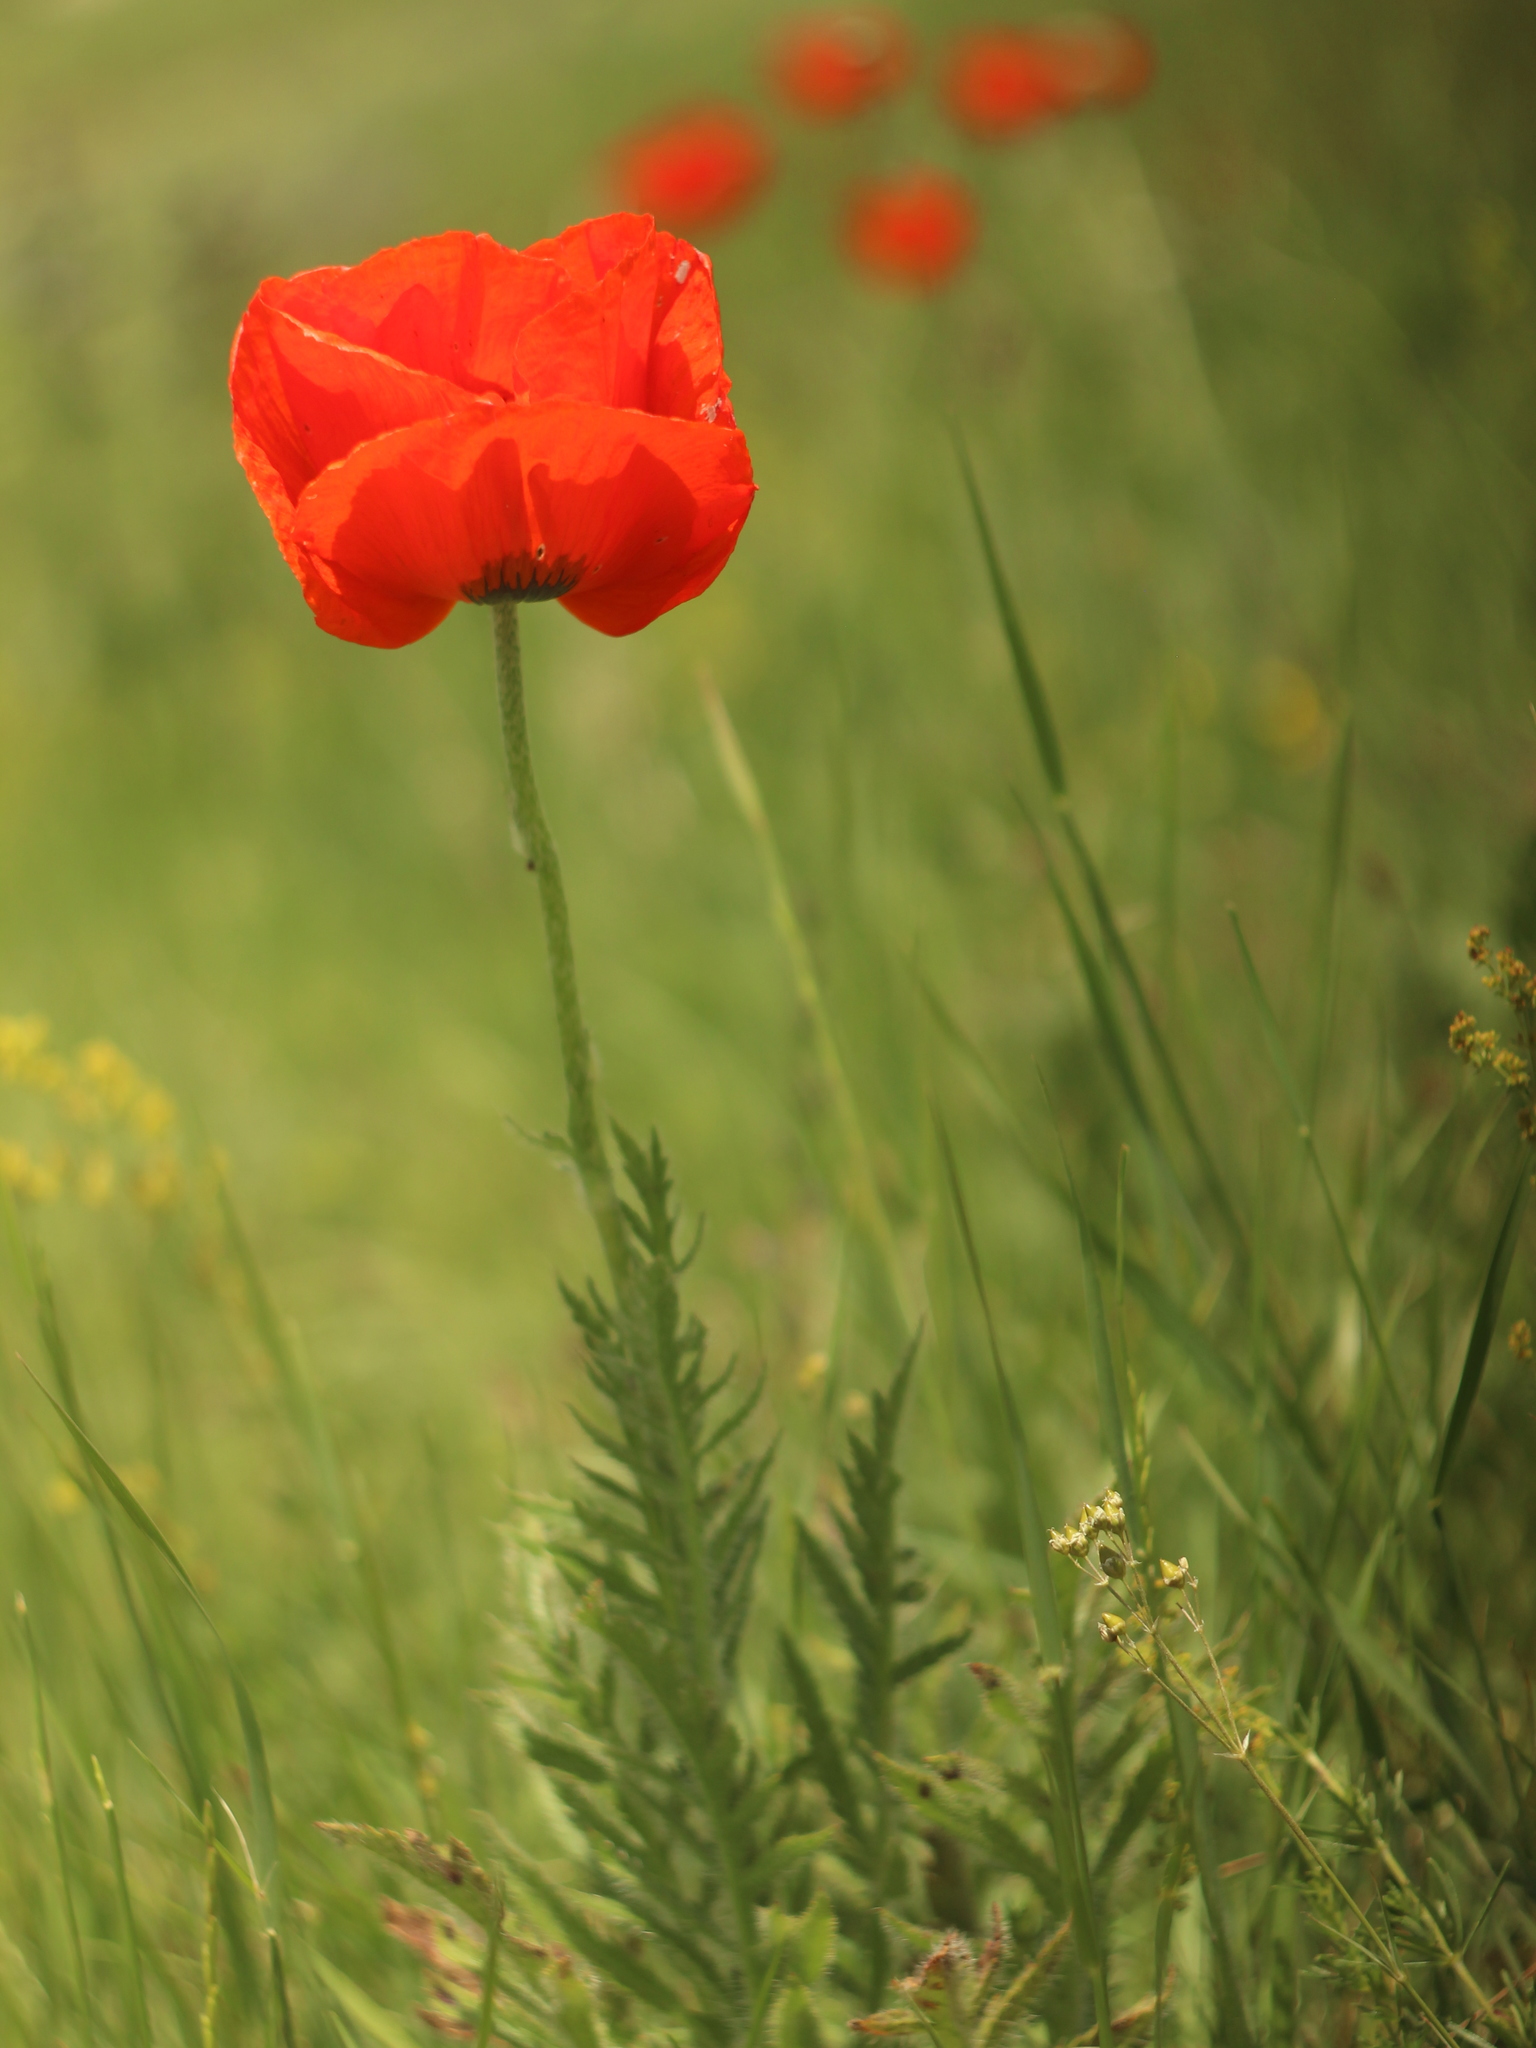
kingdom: Plantae
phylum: Tracheophyta
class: Magnoliopsida
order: Ranunculales
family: Papaveraceae
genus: Papaver
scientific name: Papaver orientale
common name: Oriental poppy
